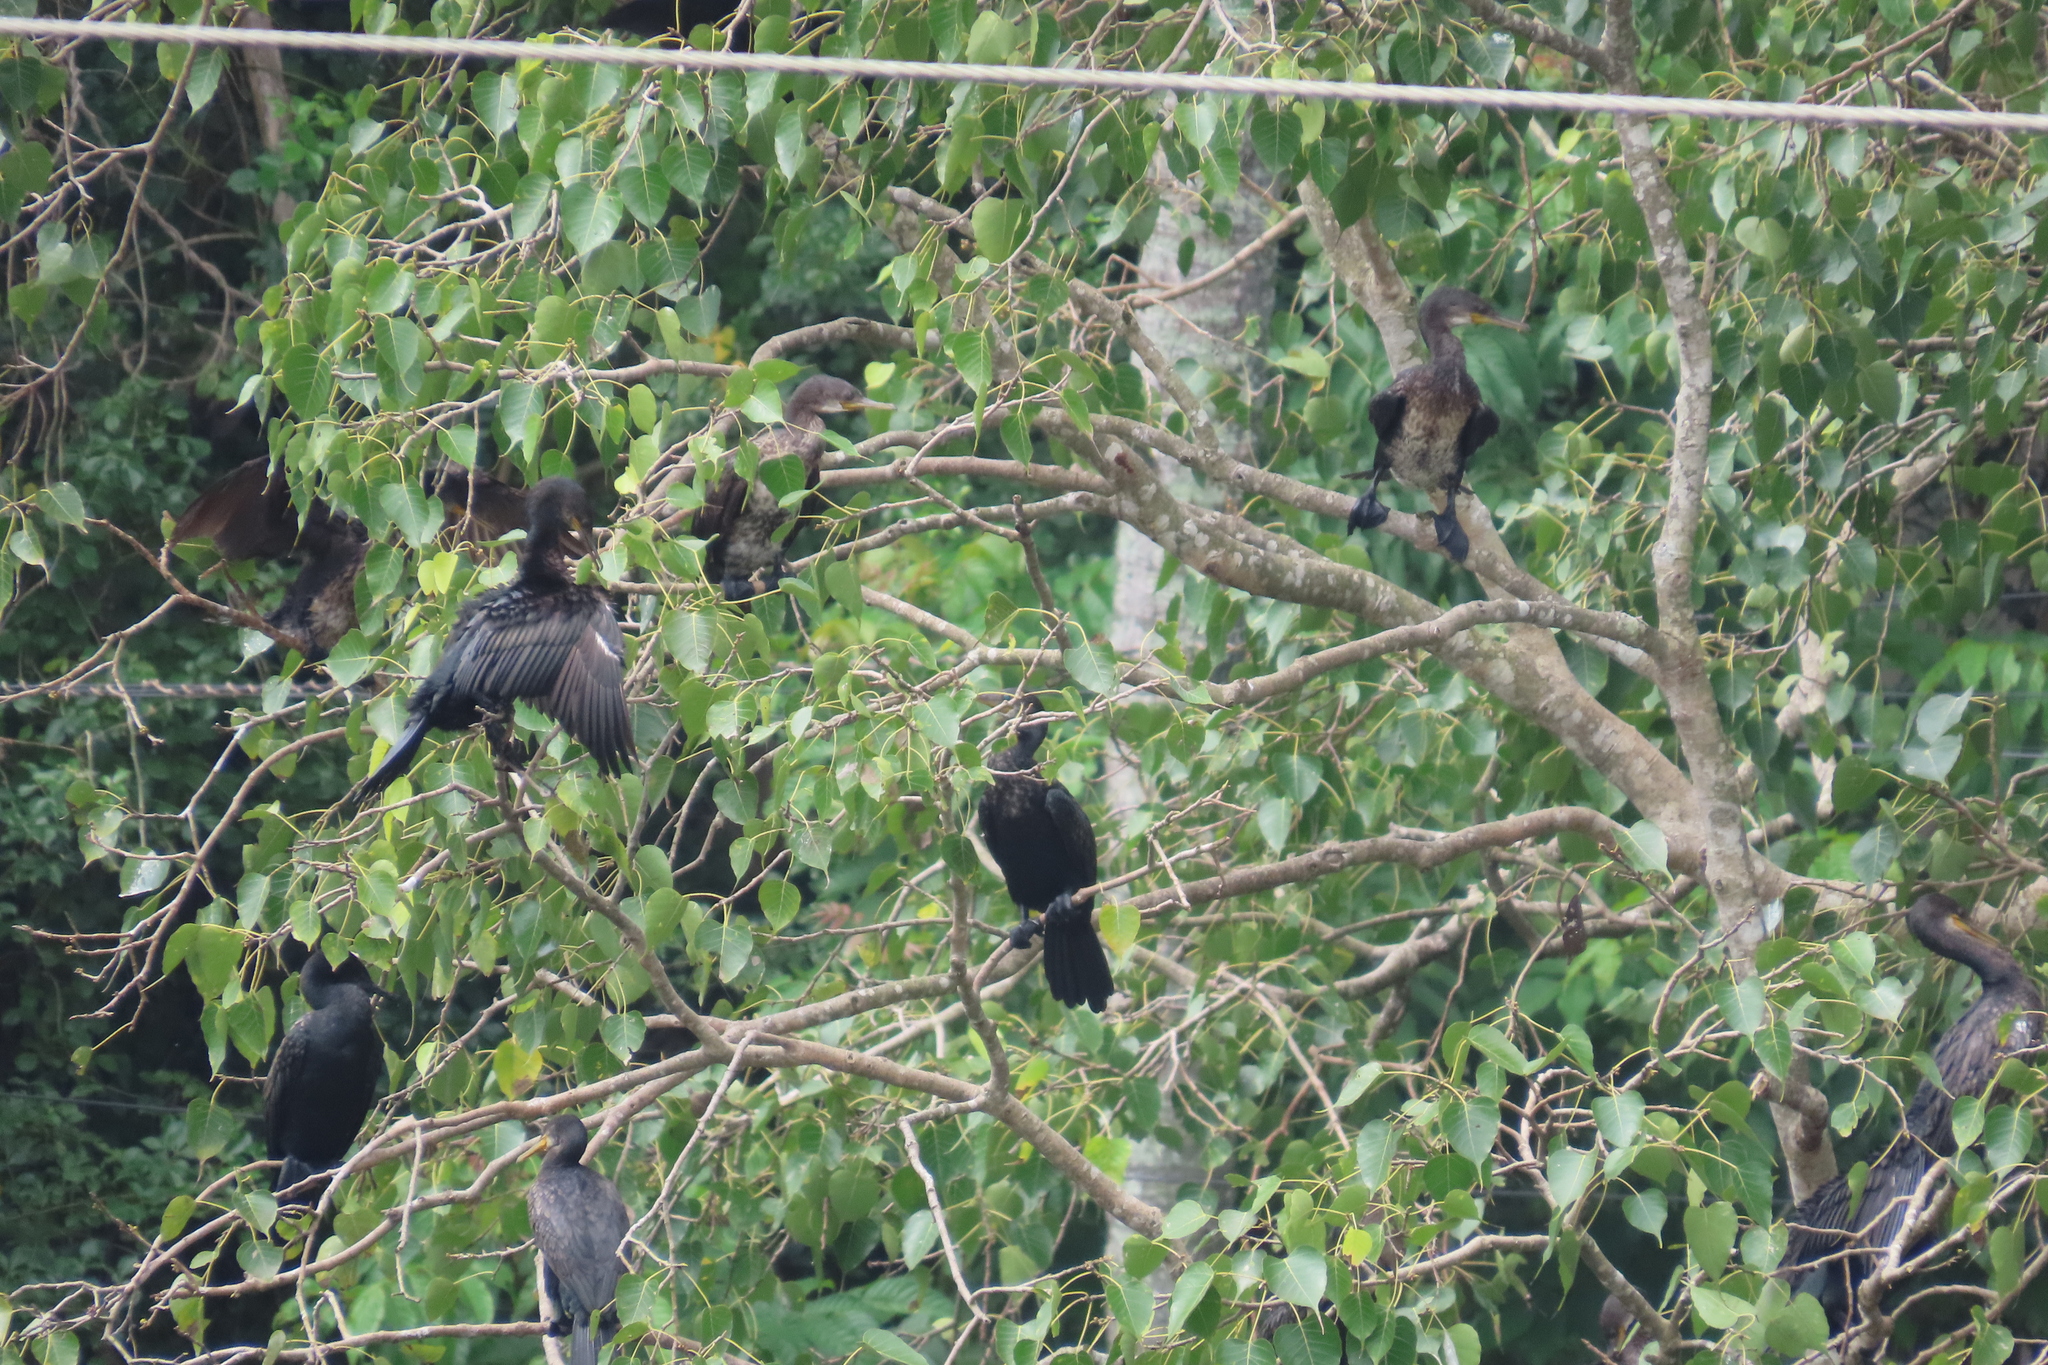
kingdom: Animalia
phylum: Chordata
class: Aves
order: Suliformes
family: Phalacrocoracidae
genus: Phalacrocorax
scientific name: Phalacrocorax fuscicollis
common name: Indian cormorant
